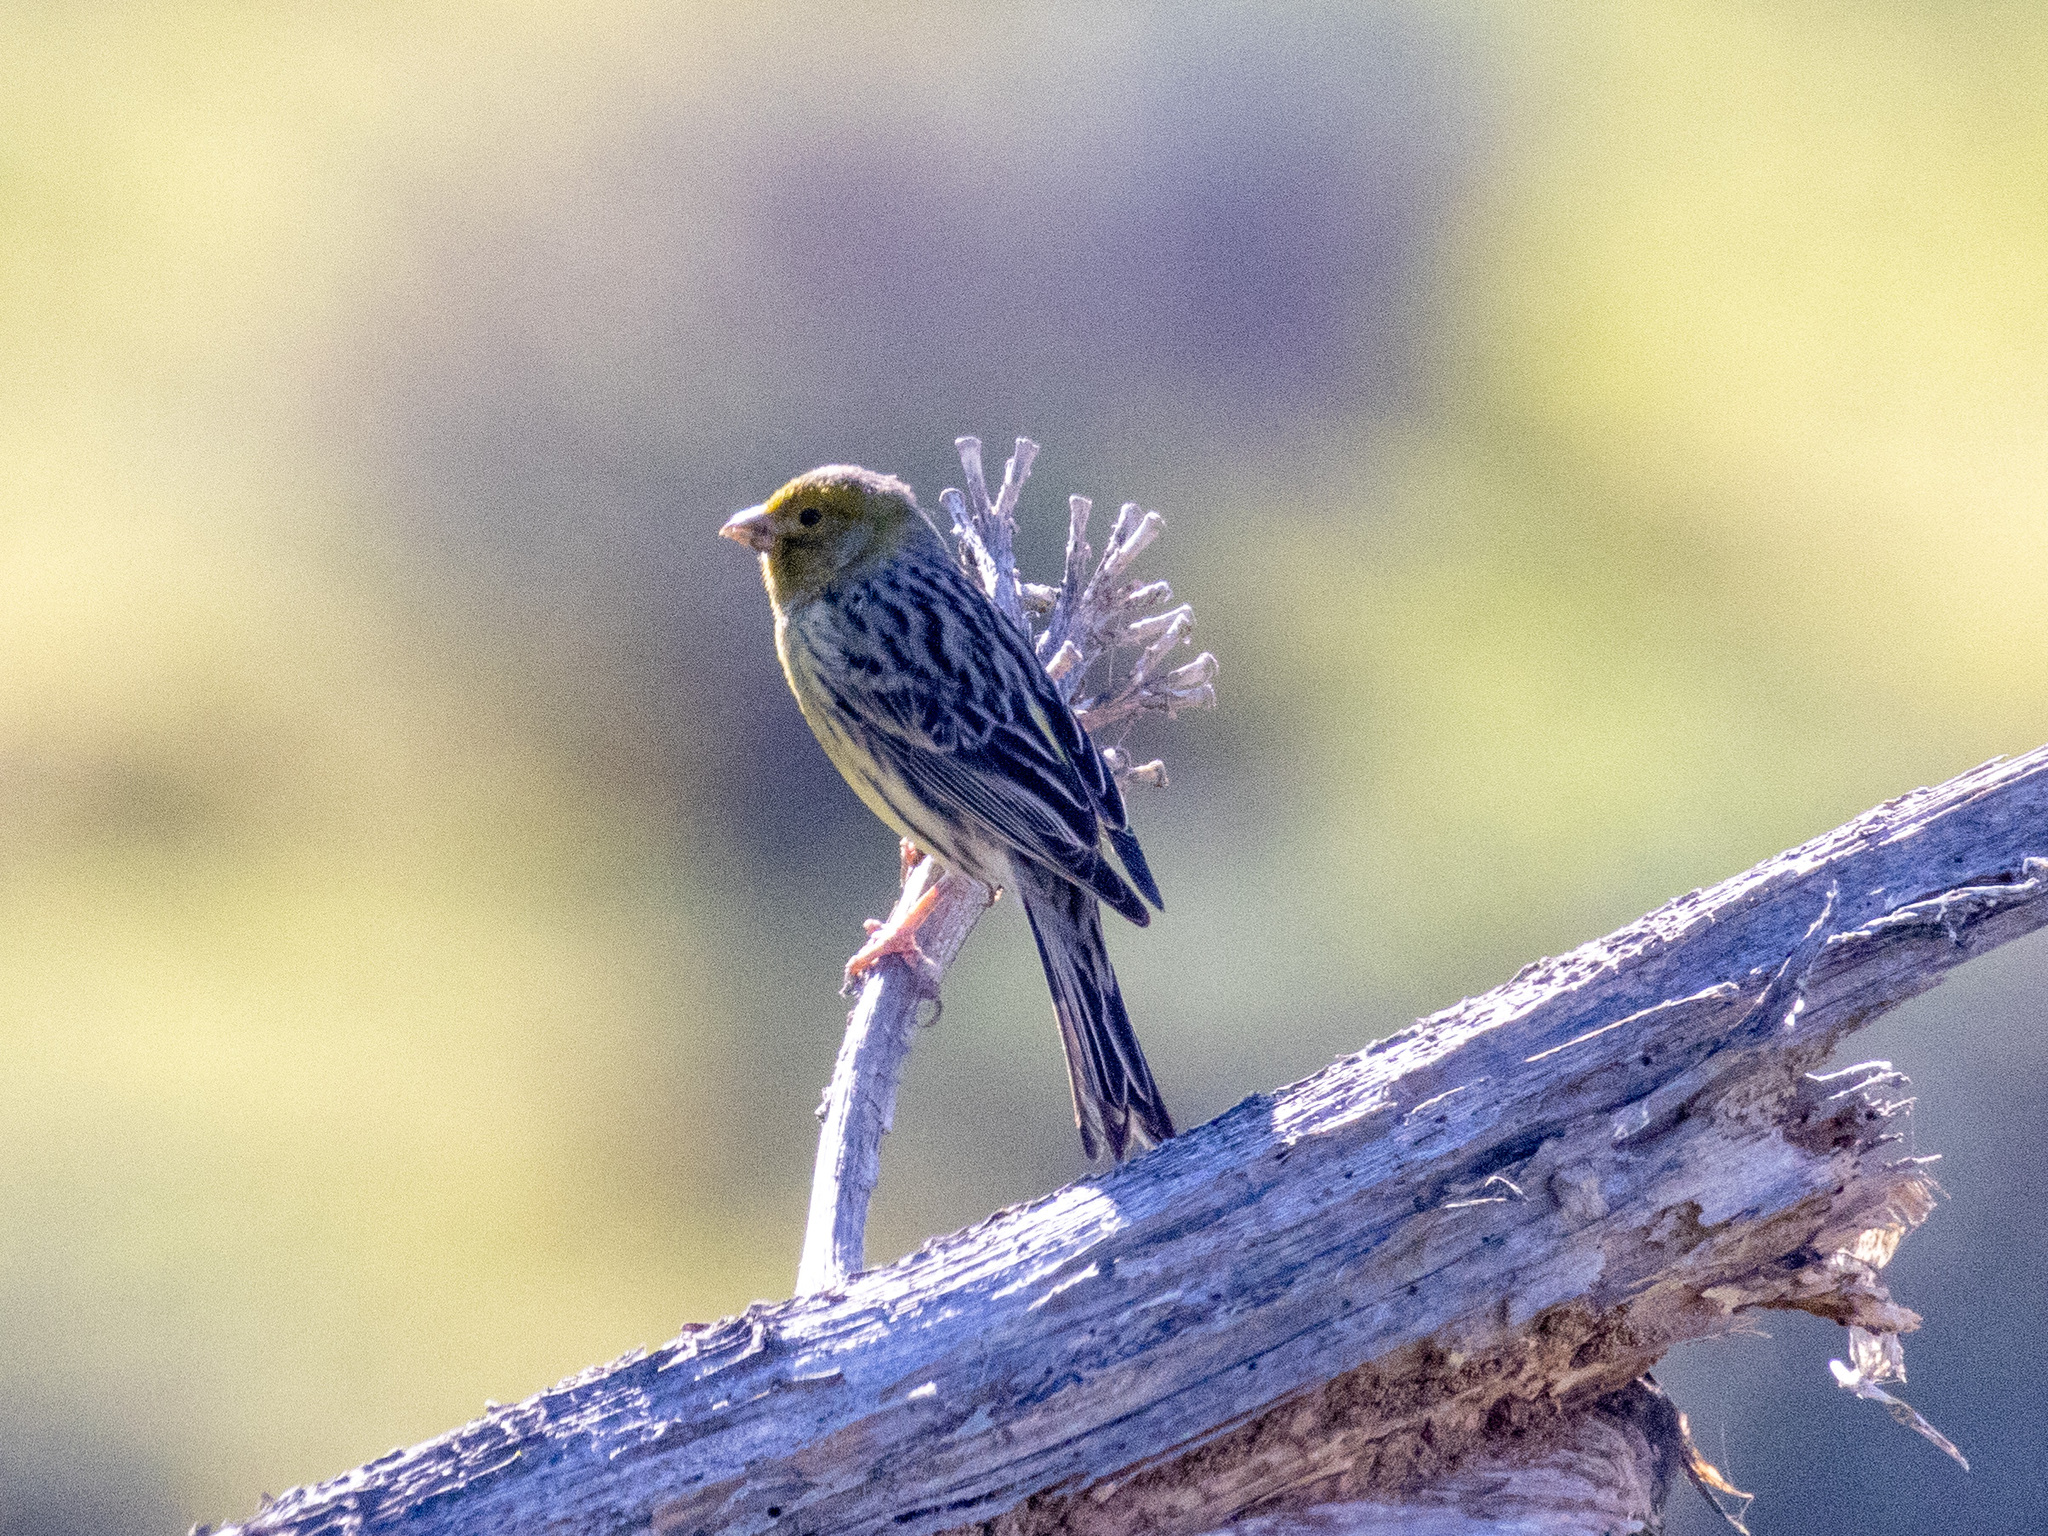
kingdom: Animalia
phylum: Chordata
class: Aves
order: Passeriformes
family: Fringillidae
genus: Serinus
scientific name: Serinus canaria
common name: Atlantic canary
